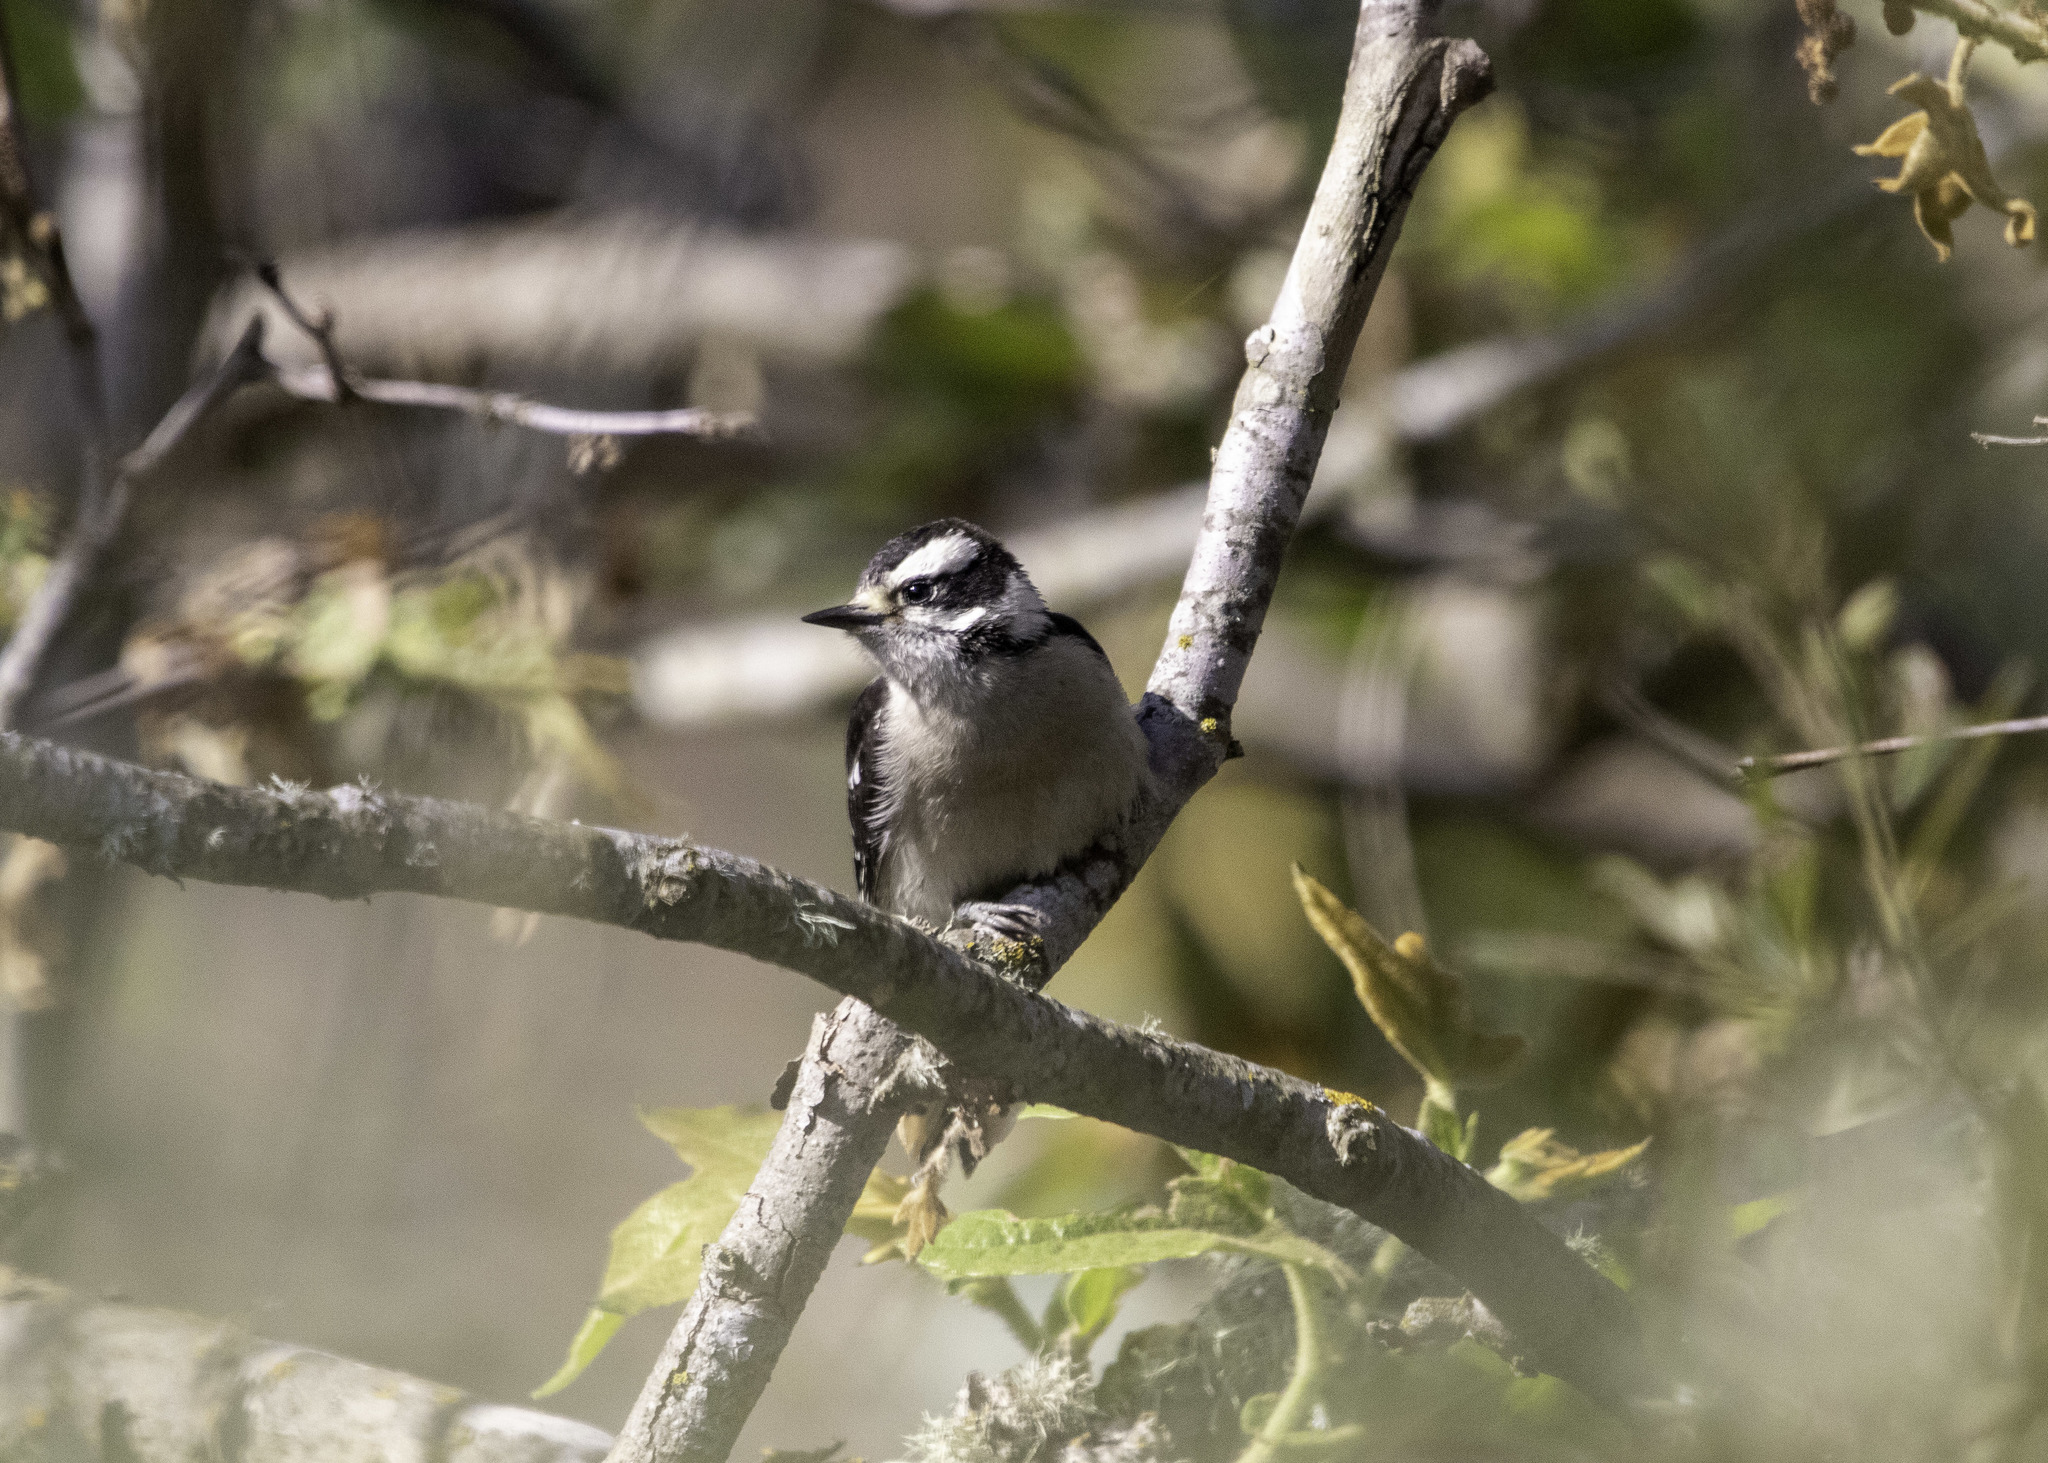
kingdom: Animalia
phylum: Chordata
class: Aves
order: Piciformes
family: Picidae
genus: Dryobates
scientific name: Dryobates pubescens
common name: Downy woodpecker
